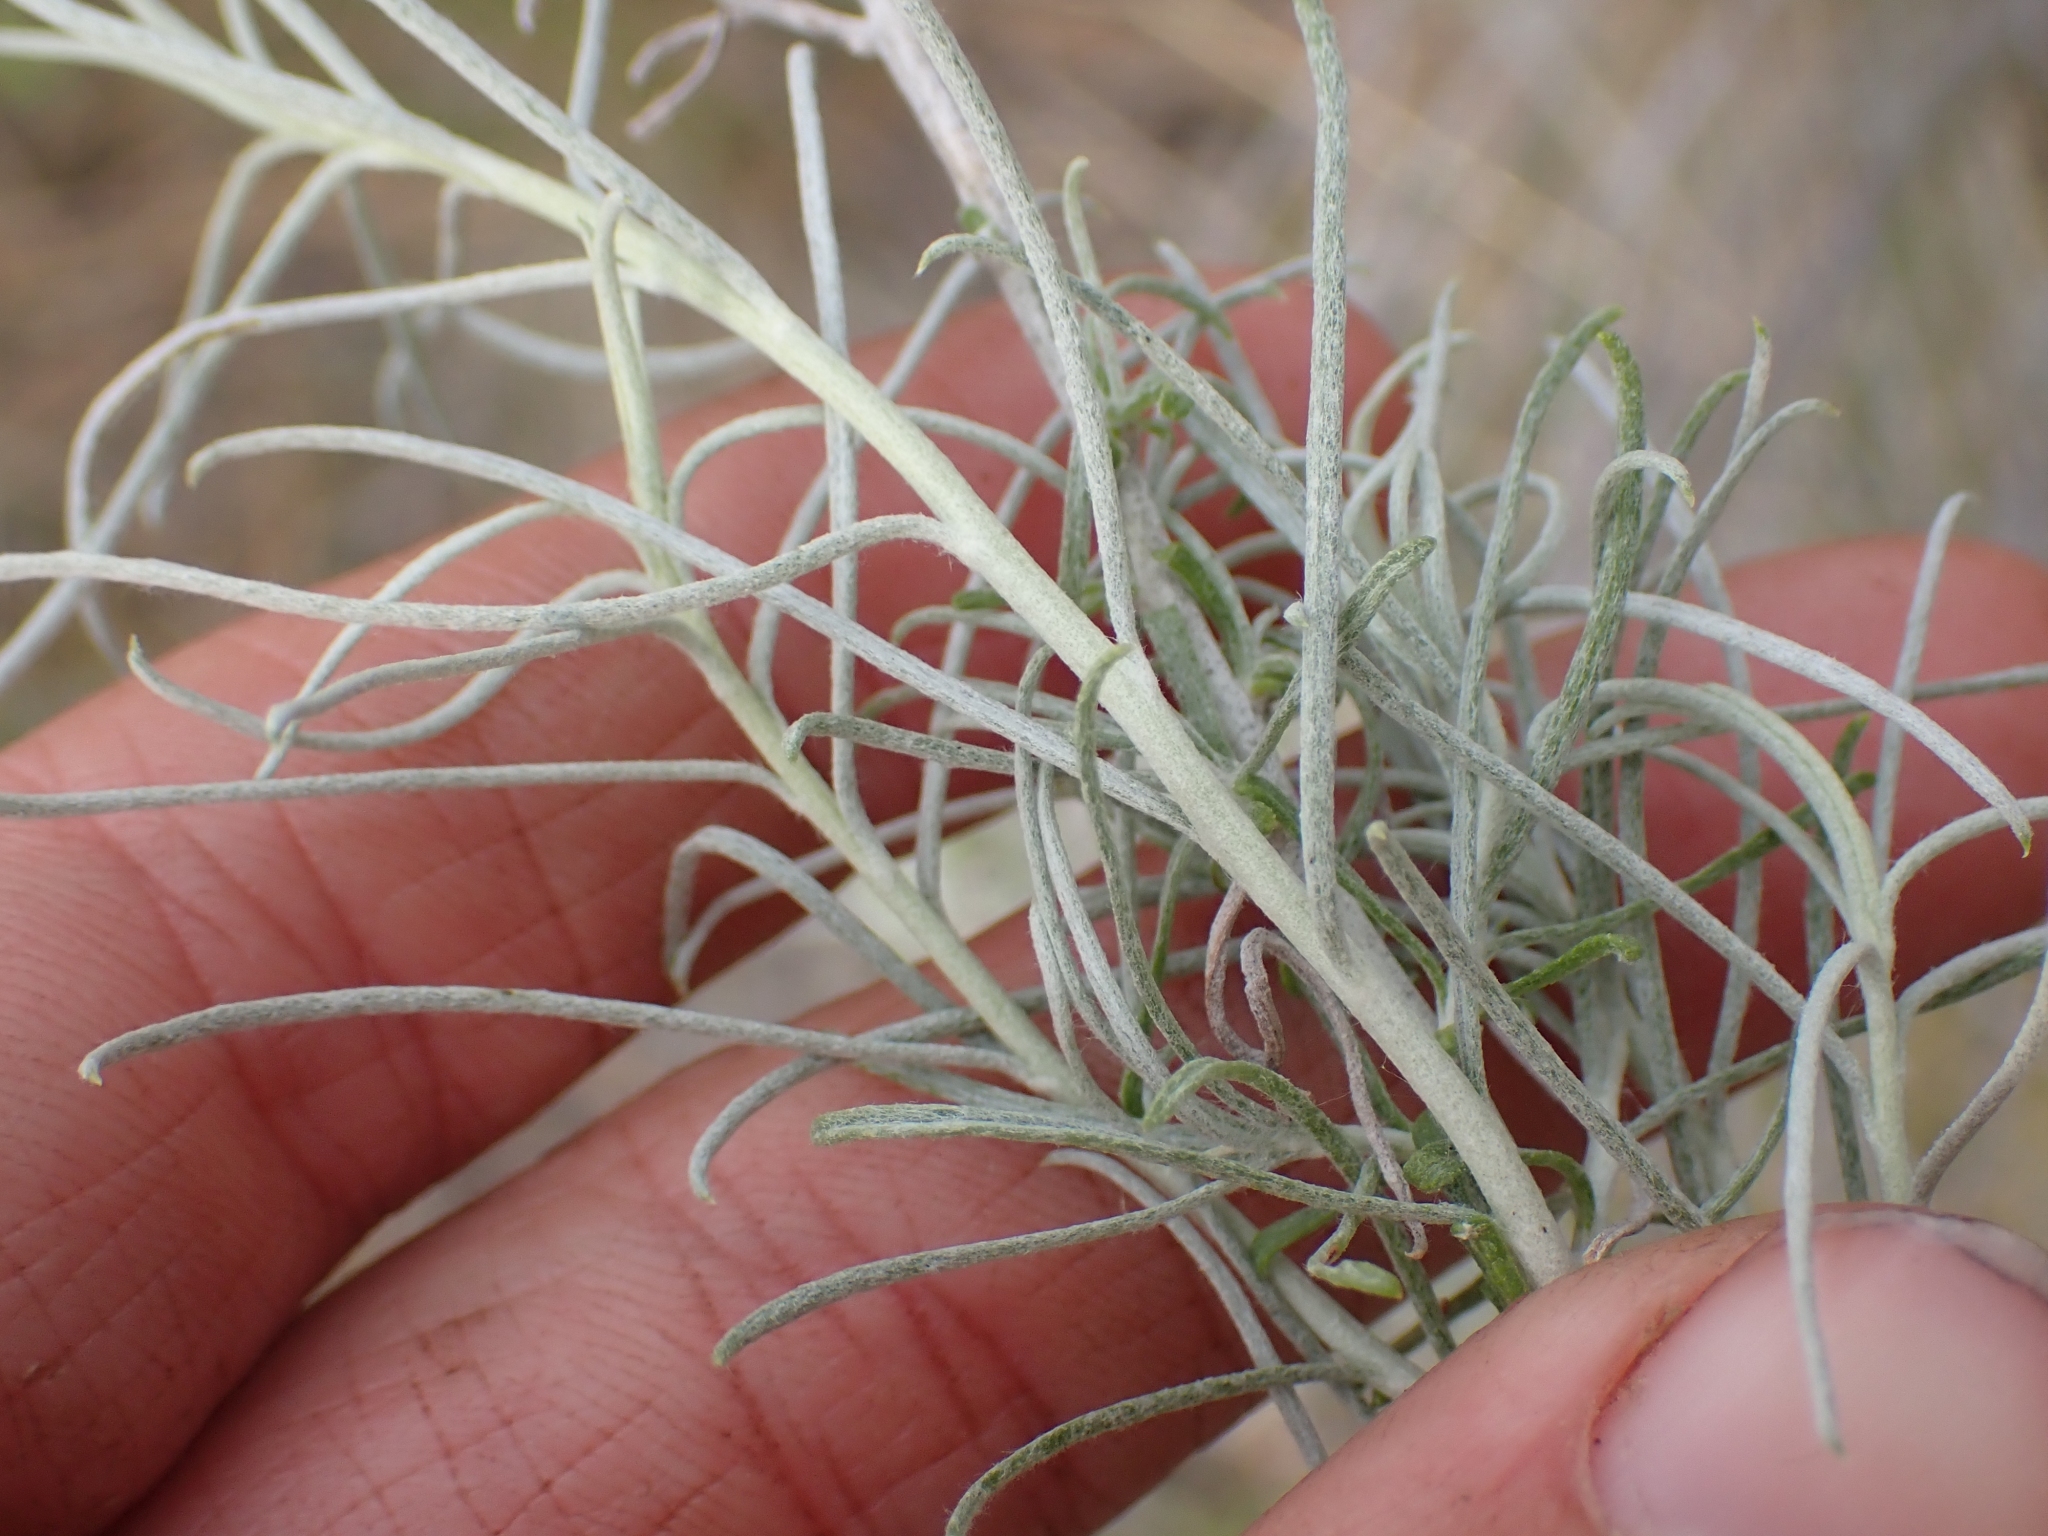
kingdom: Plantae
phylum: Tracheophyta
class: Magnoliopsida
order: Asterales
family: Asteraceae
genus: Ericameria
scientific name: Ericameria nauseosa
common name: Rubber rabbitbrush
